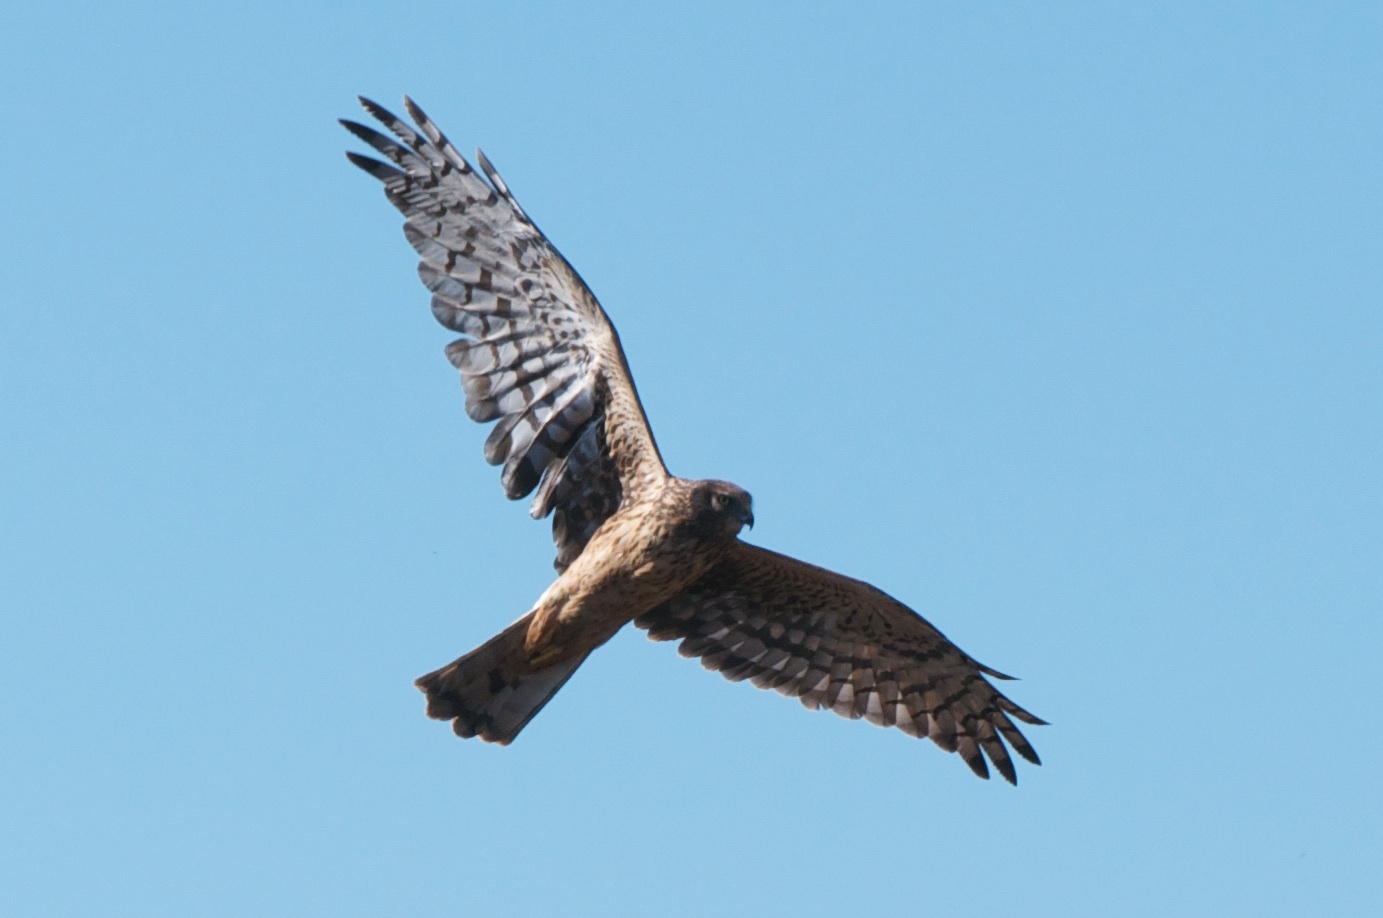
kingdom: Animalia
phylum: Chordata
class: Aves
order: Accipitriformes
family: Accipitridae
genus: Circus
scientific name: Circus cyaneus
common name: Hen harrier
